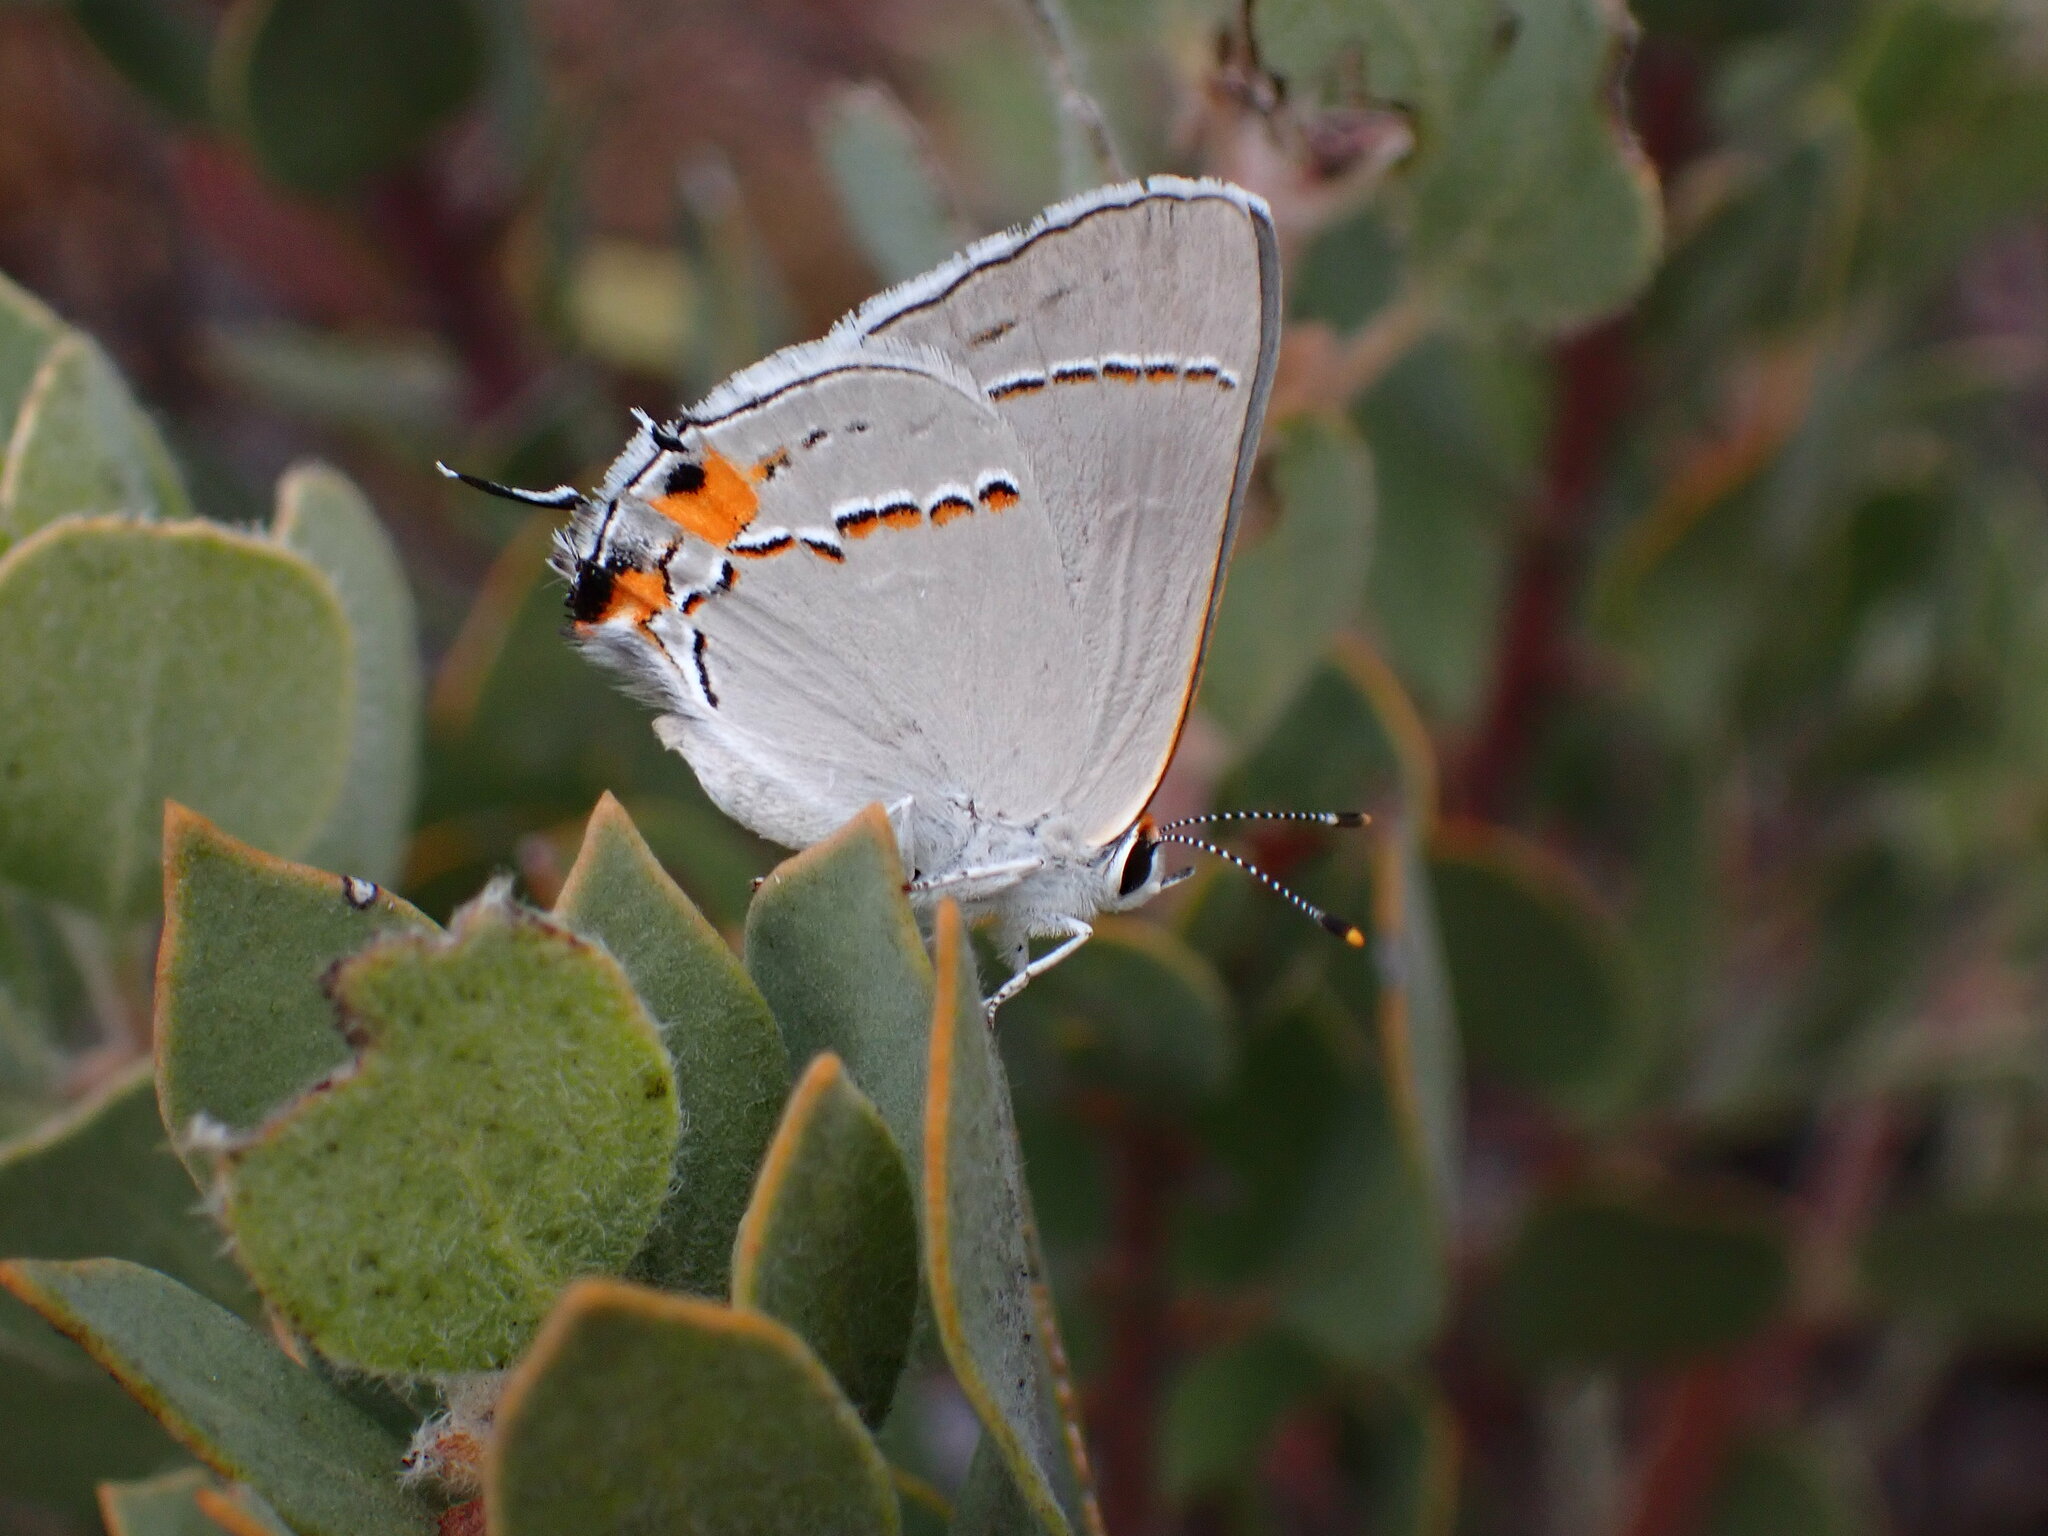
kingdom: Animalia
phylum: Arthropoda
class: Insecta
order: Lepidoptera
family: Lycaenidae
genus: Strymon
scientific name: Strymon melinus
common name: Gray hairstreak
